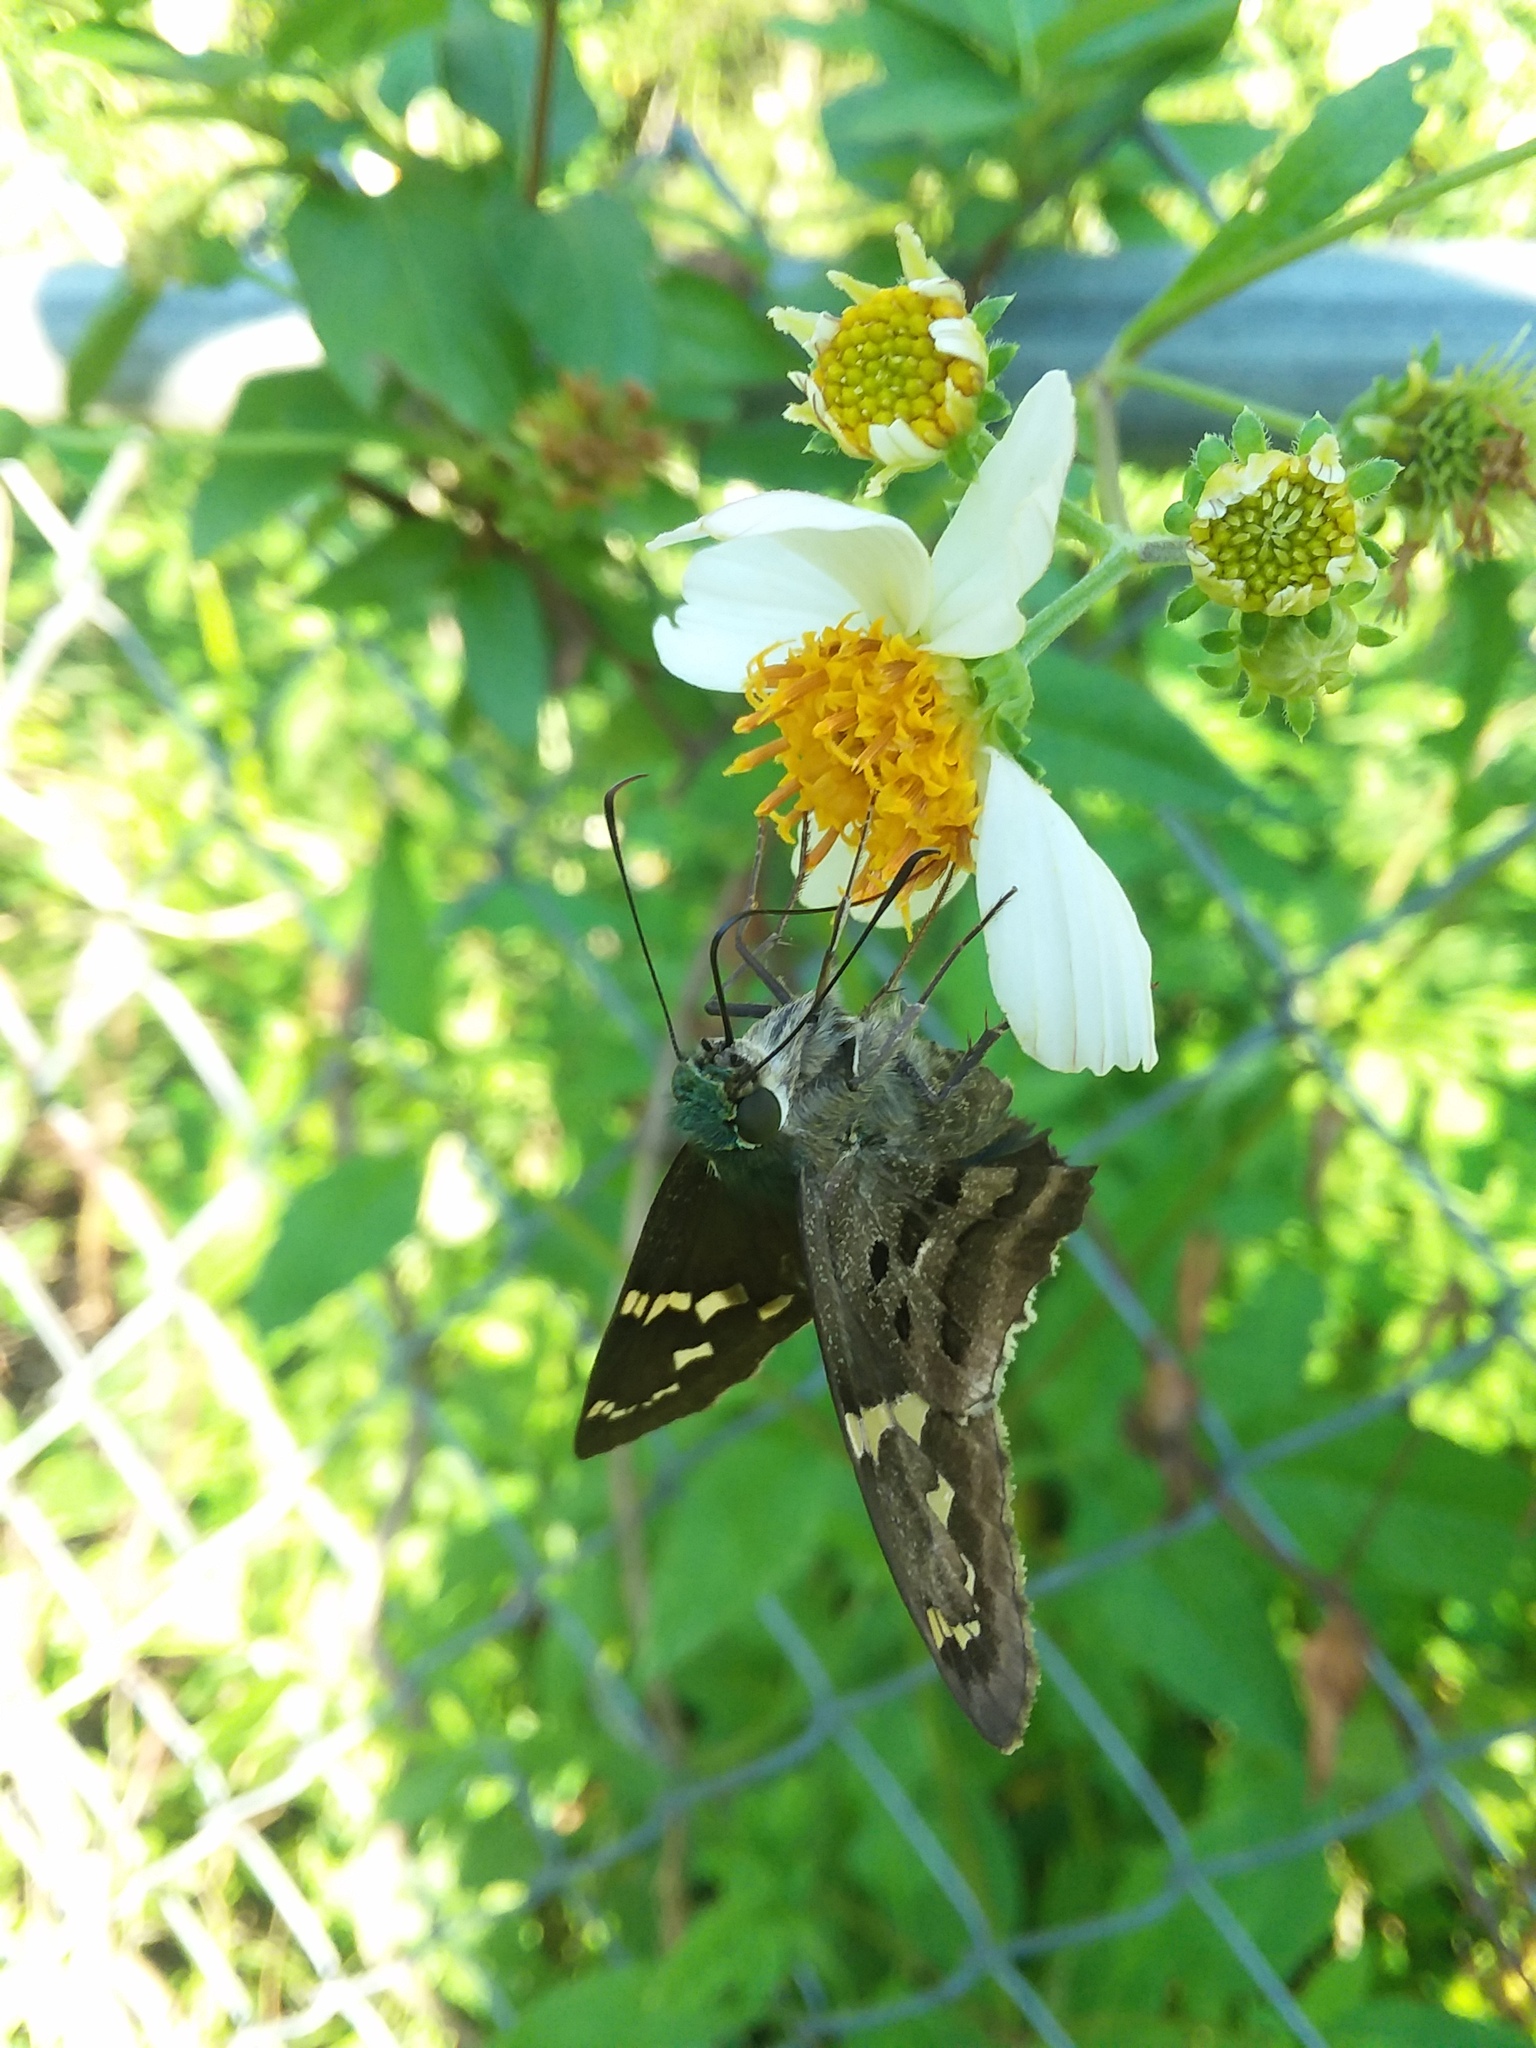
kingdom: Plantae
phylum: Tracheophyta
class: Magnoliopsida
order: Asterales
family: Asteraceae
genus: Bidens
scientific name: Bidens alba
